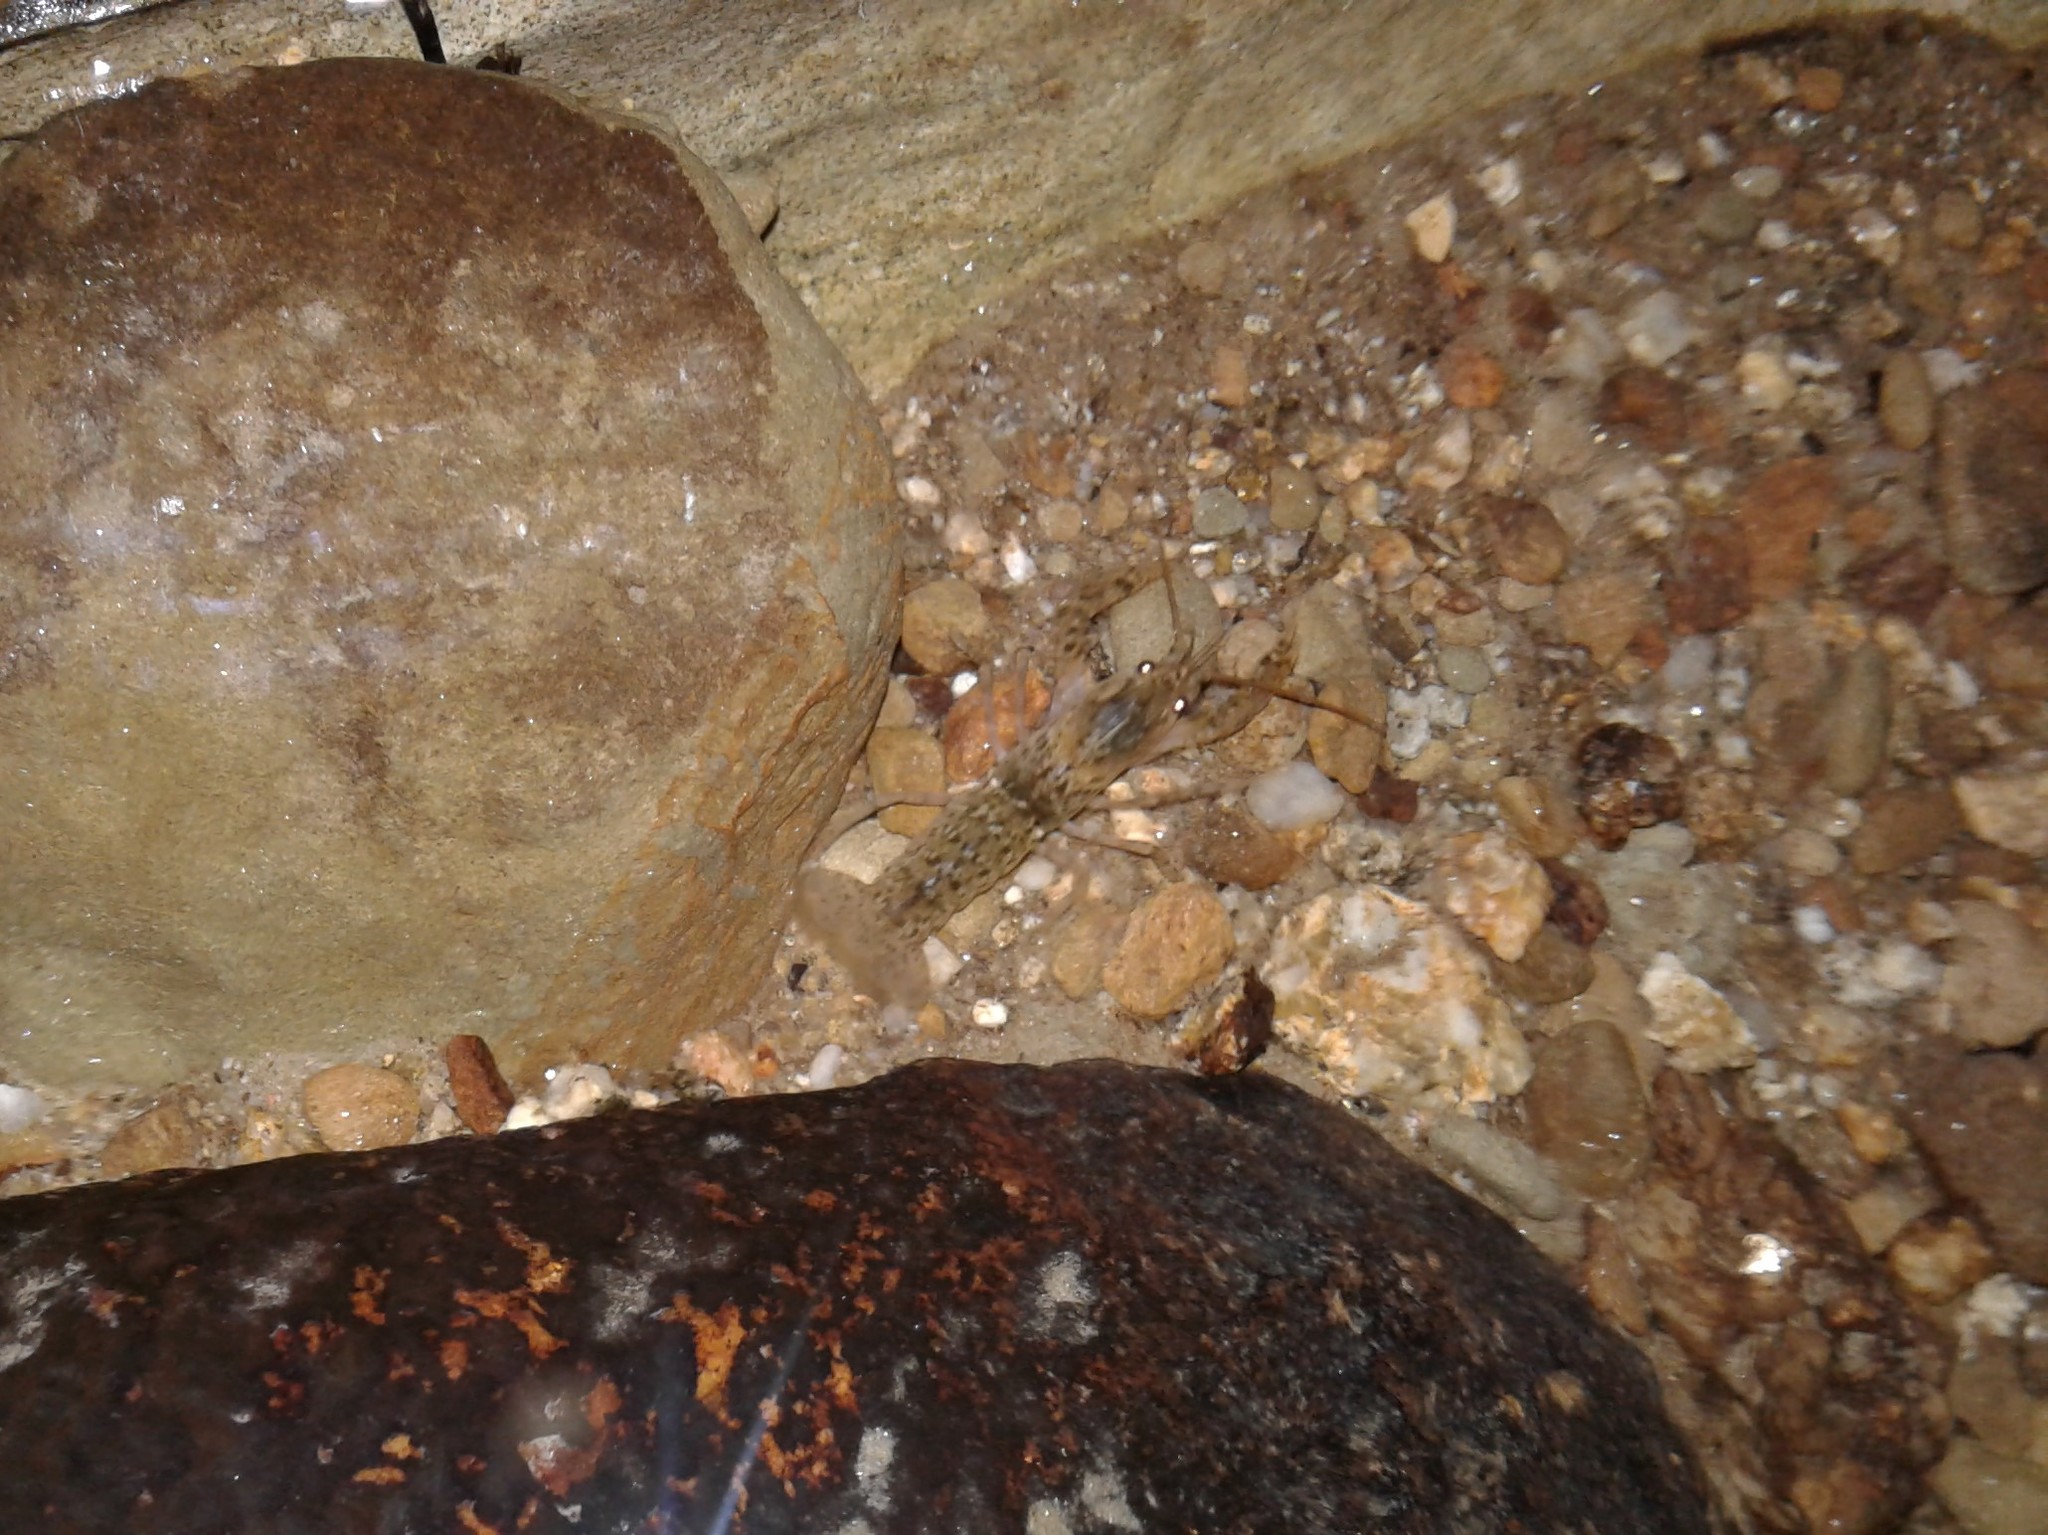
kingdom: Animalia
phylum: Arthropoda
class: Malacostraca
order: Decapoda
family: Parastacidae
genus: Paranephrops
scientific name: Paranephrops planifrons
